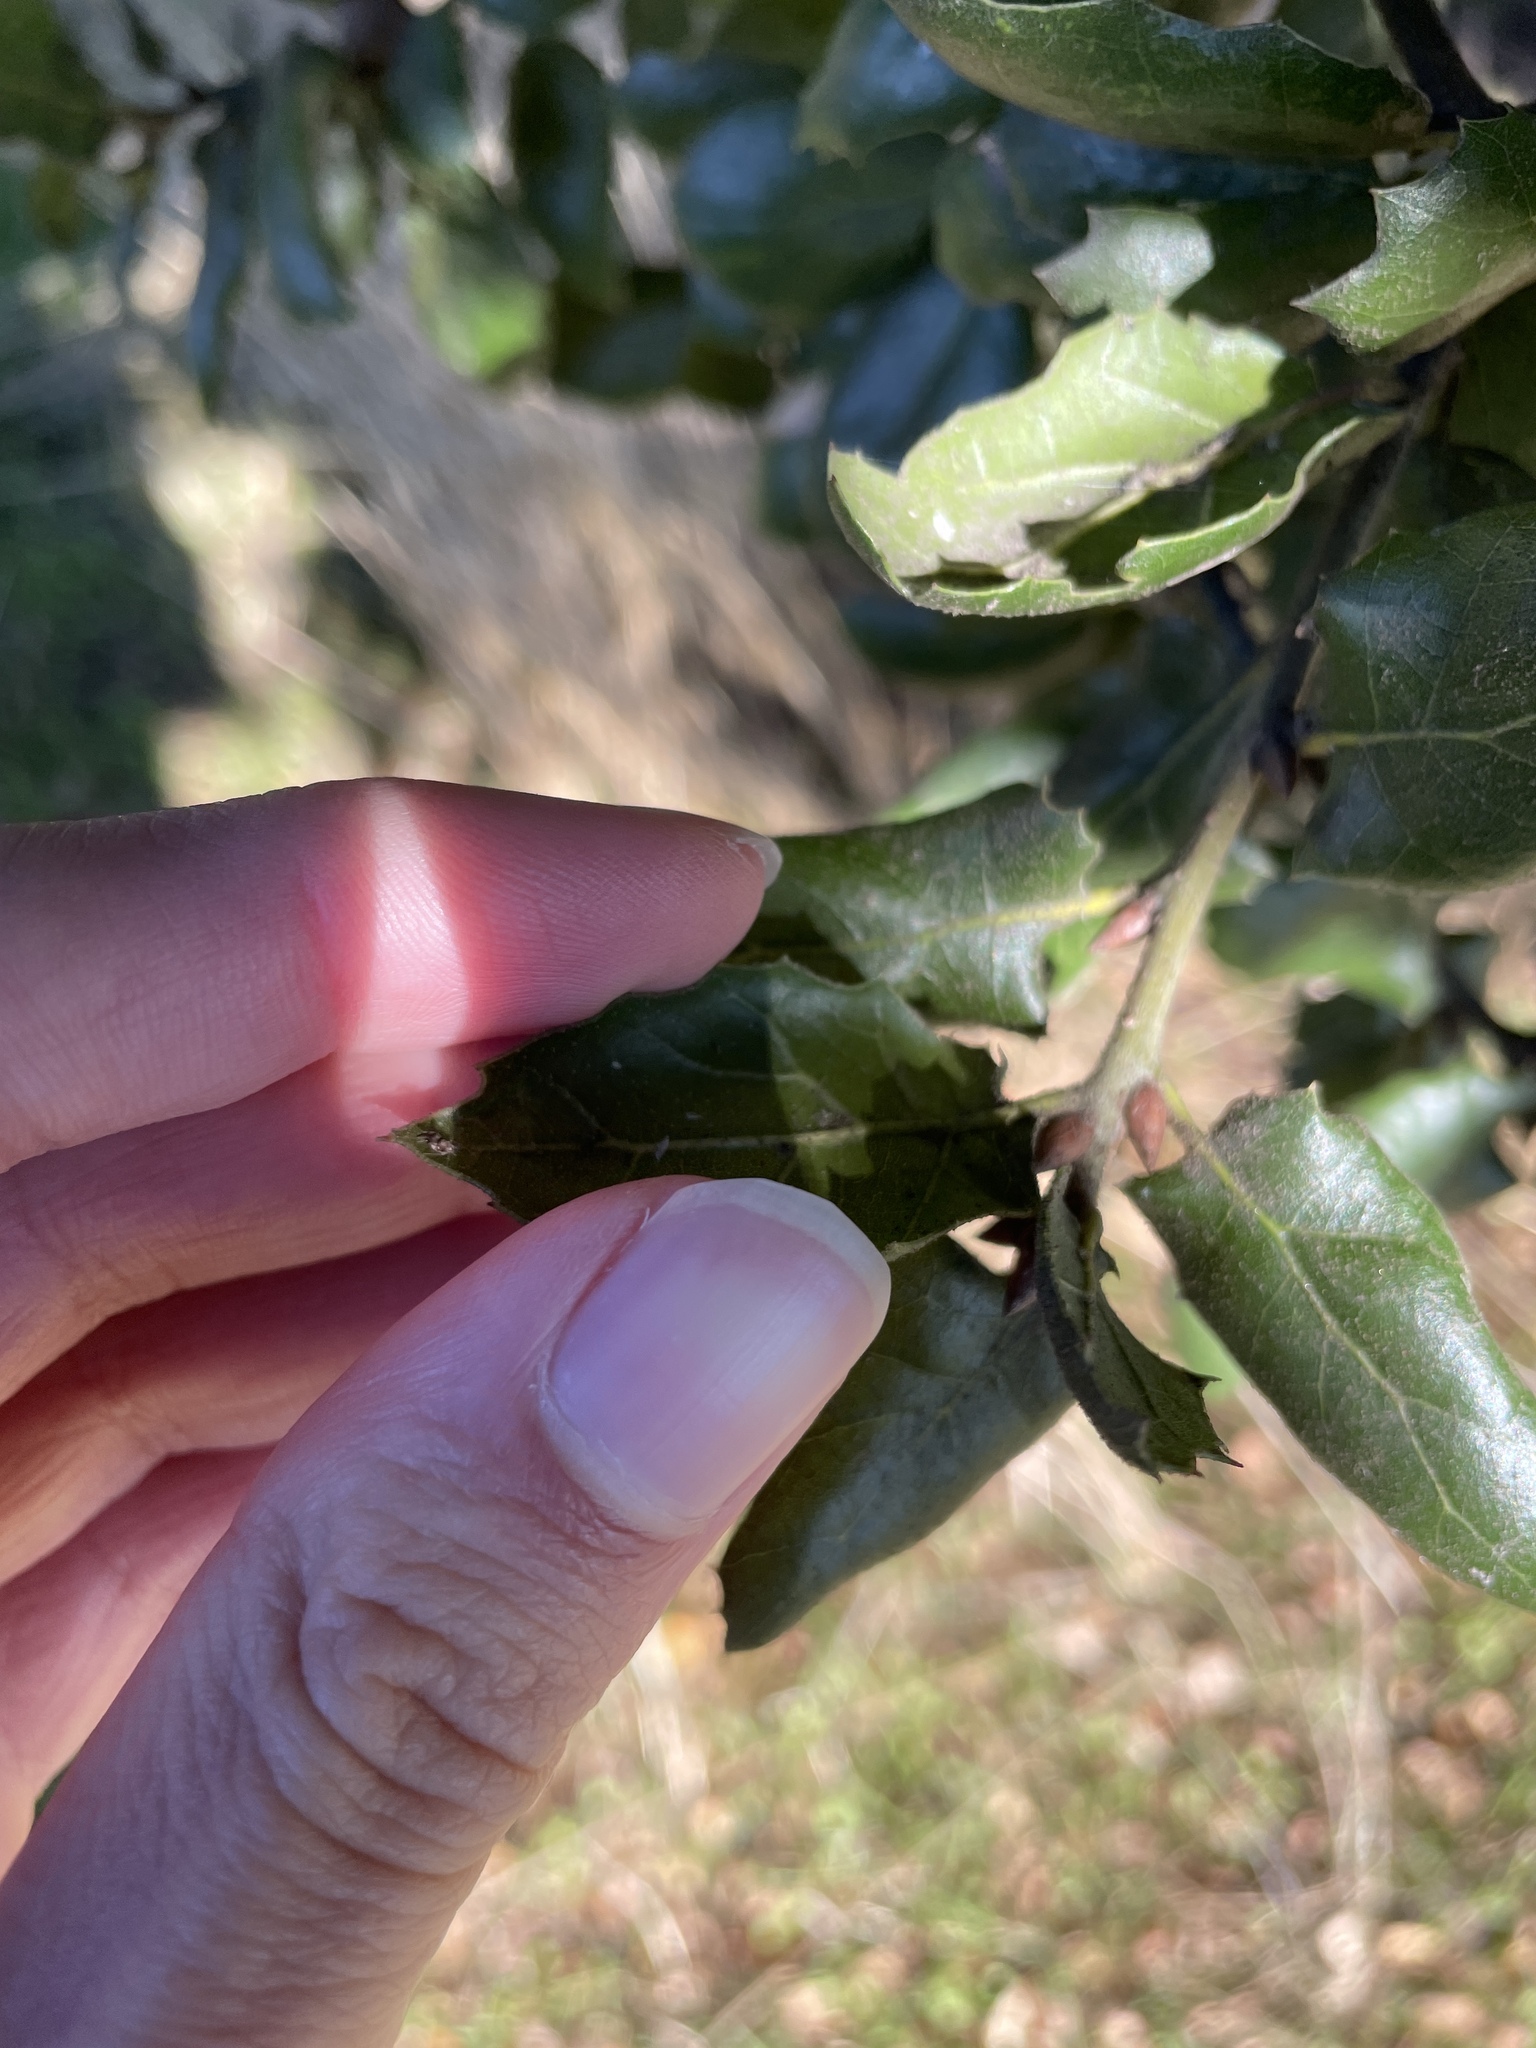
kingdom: Plantae
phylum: Tracheophyta
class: Magnoliopsida
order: Fagales
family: Fagaceae
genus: Quercus
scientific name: Quercus agrifolia
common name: California live oak
